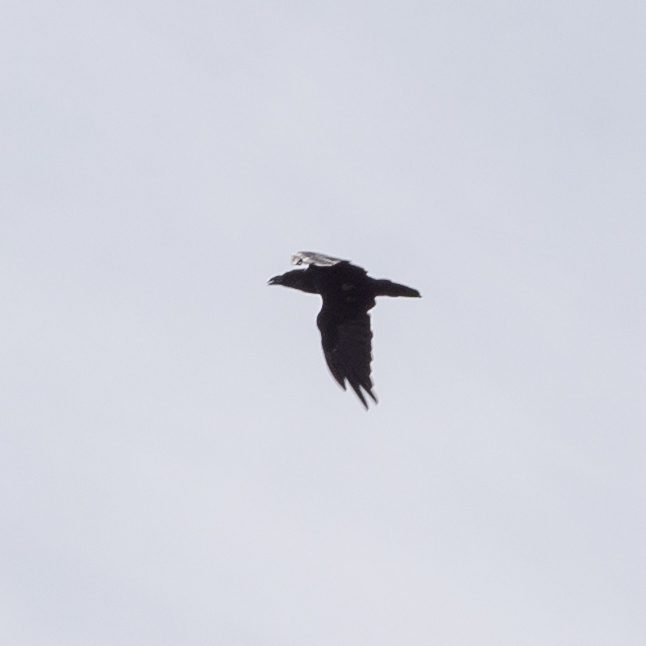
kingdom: Animalia
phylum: Chordata
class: Aves
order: Passeriformes
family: Corvidae
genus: Corvus
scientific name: Corvus corax
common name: Common raven
